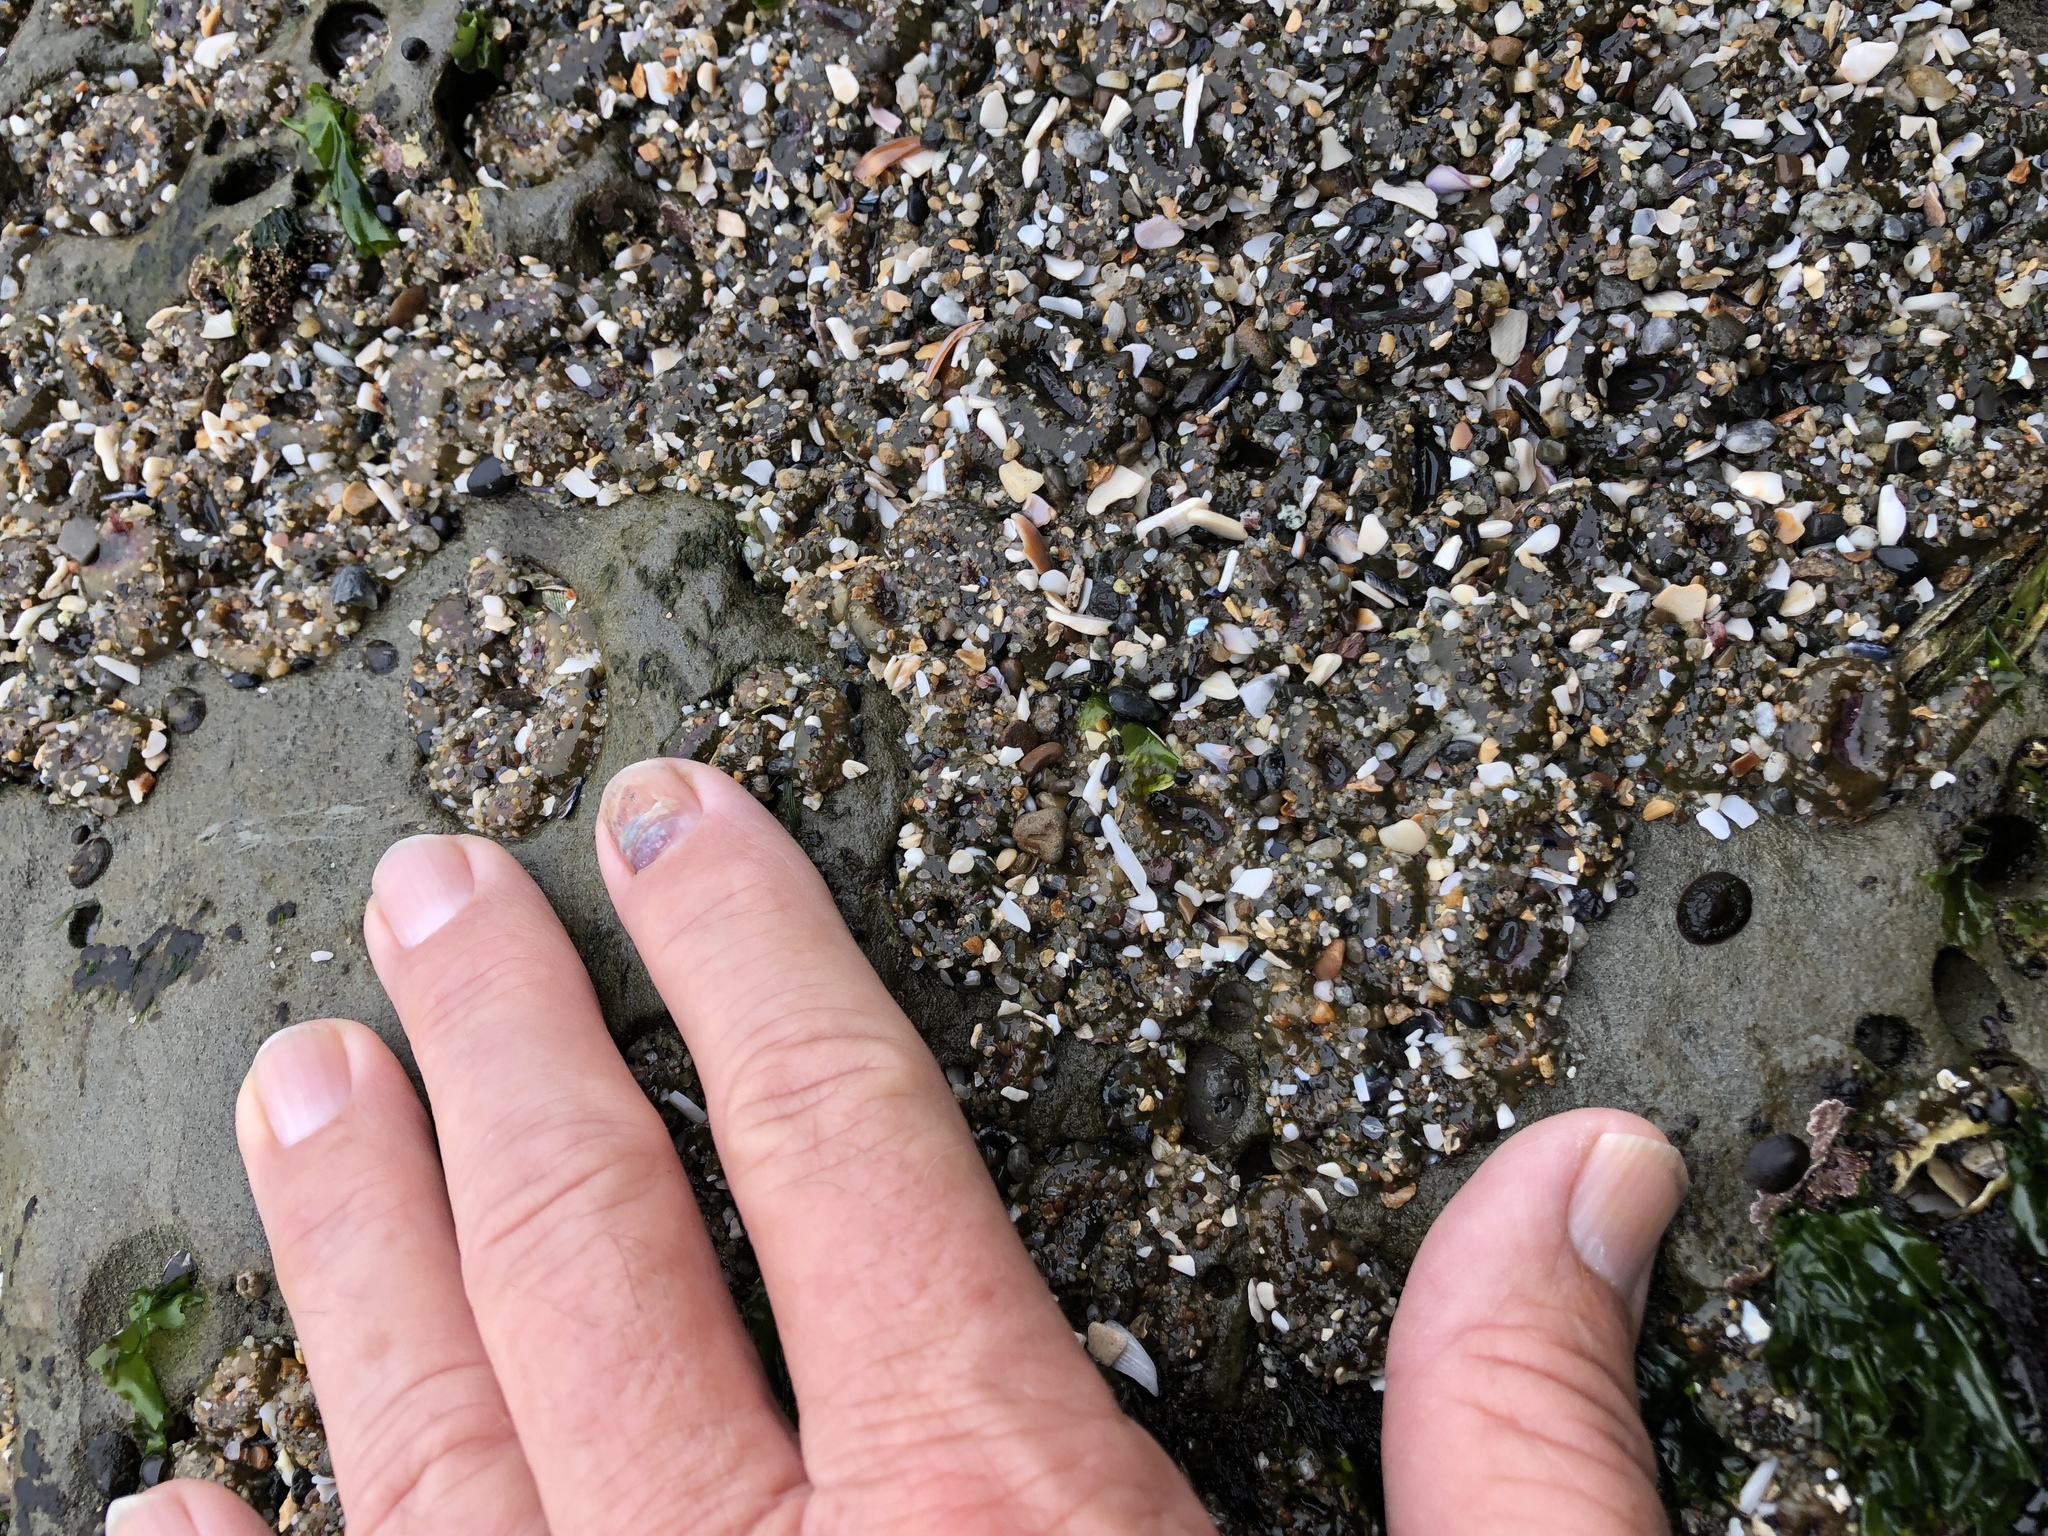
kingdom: Animalia
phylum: Cnidaria
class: Anthozoa
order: Actiniaria
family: Actiniidae
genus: Anthopleura
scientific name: Anthopleura elegantissima
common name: Clonal anemone
